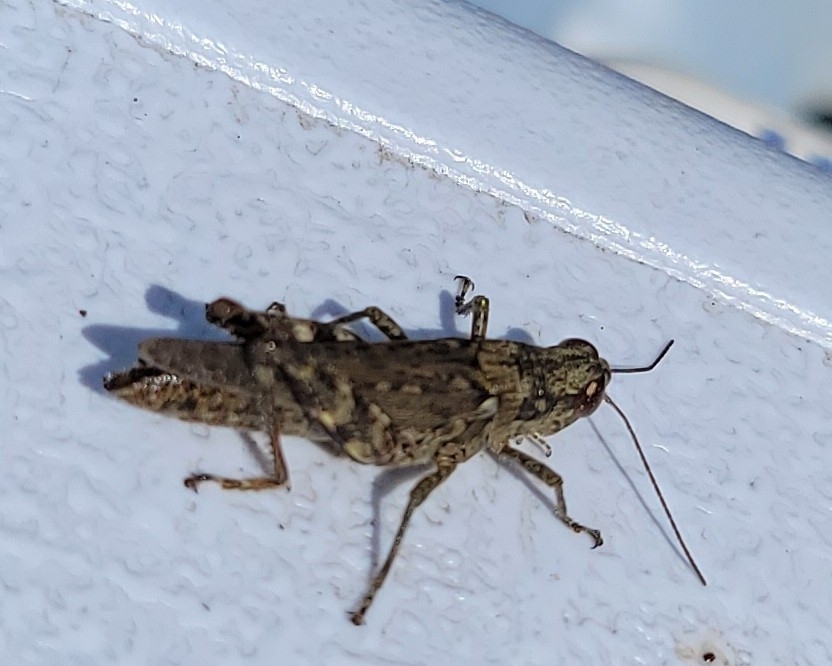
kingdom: Animalia
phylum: Arthropoda
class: Insecta
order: Orthoptera
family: Acrididae
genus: Melanoplus
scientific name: Melanoplus punctulatus
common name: Pine-tree spur-throat grasshopper
